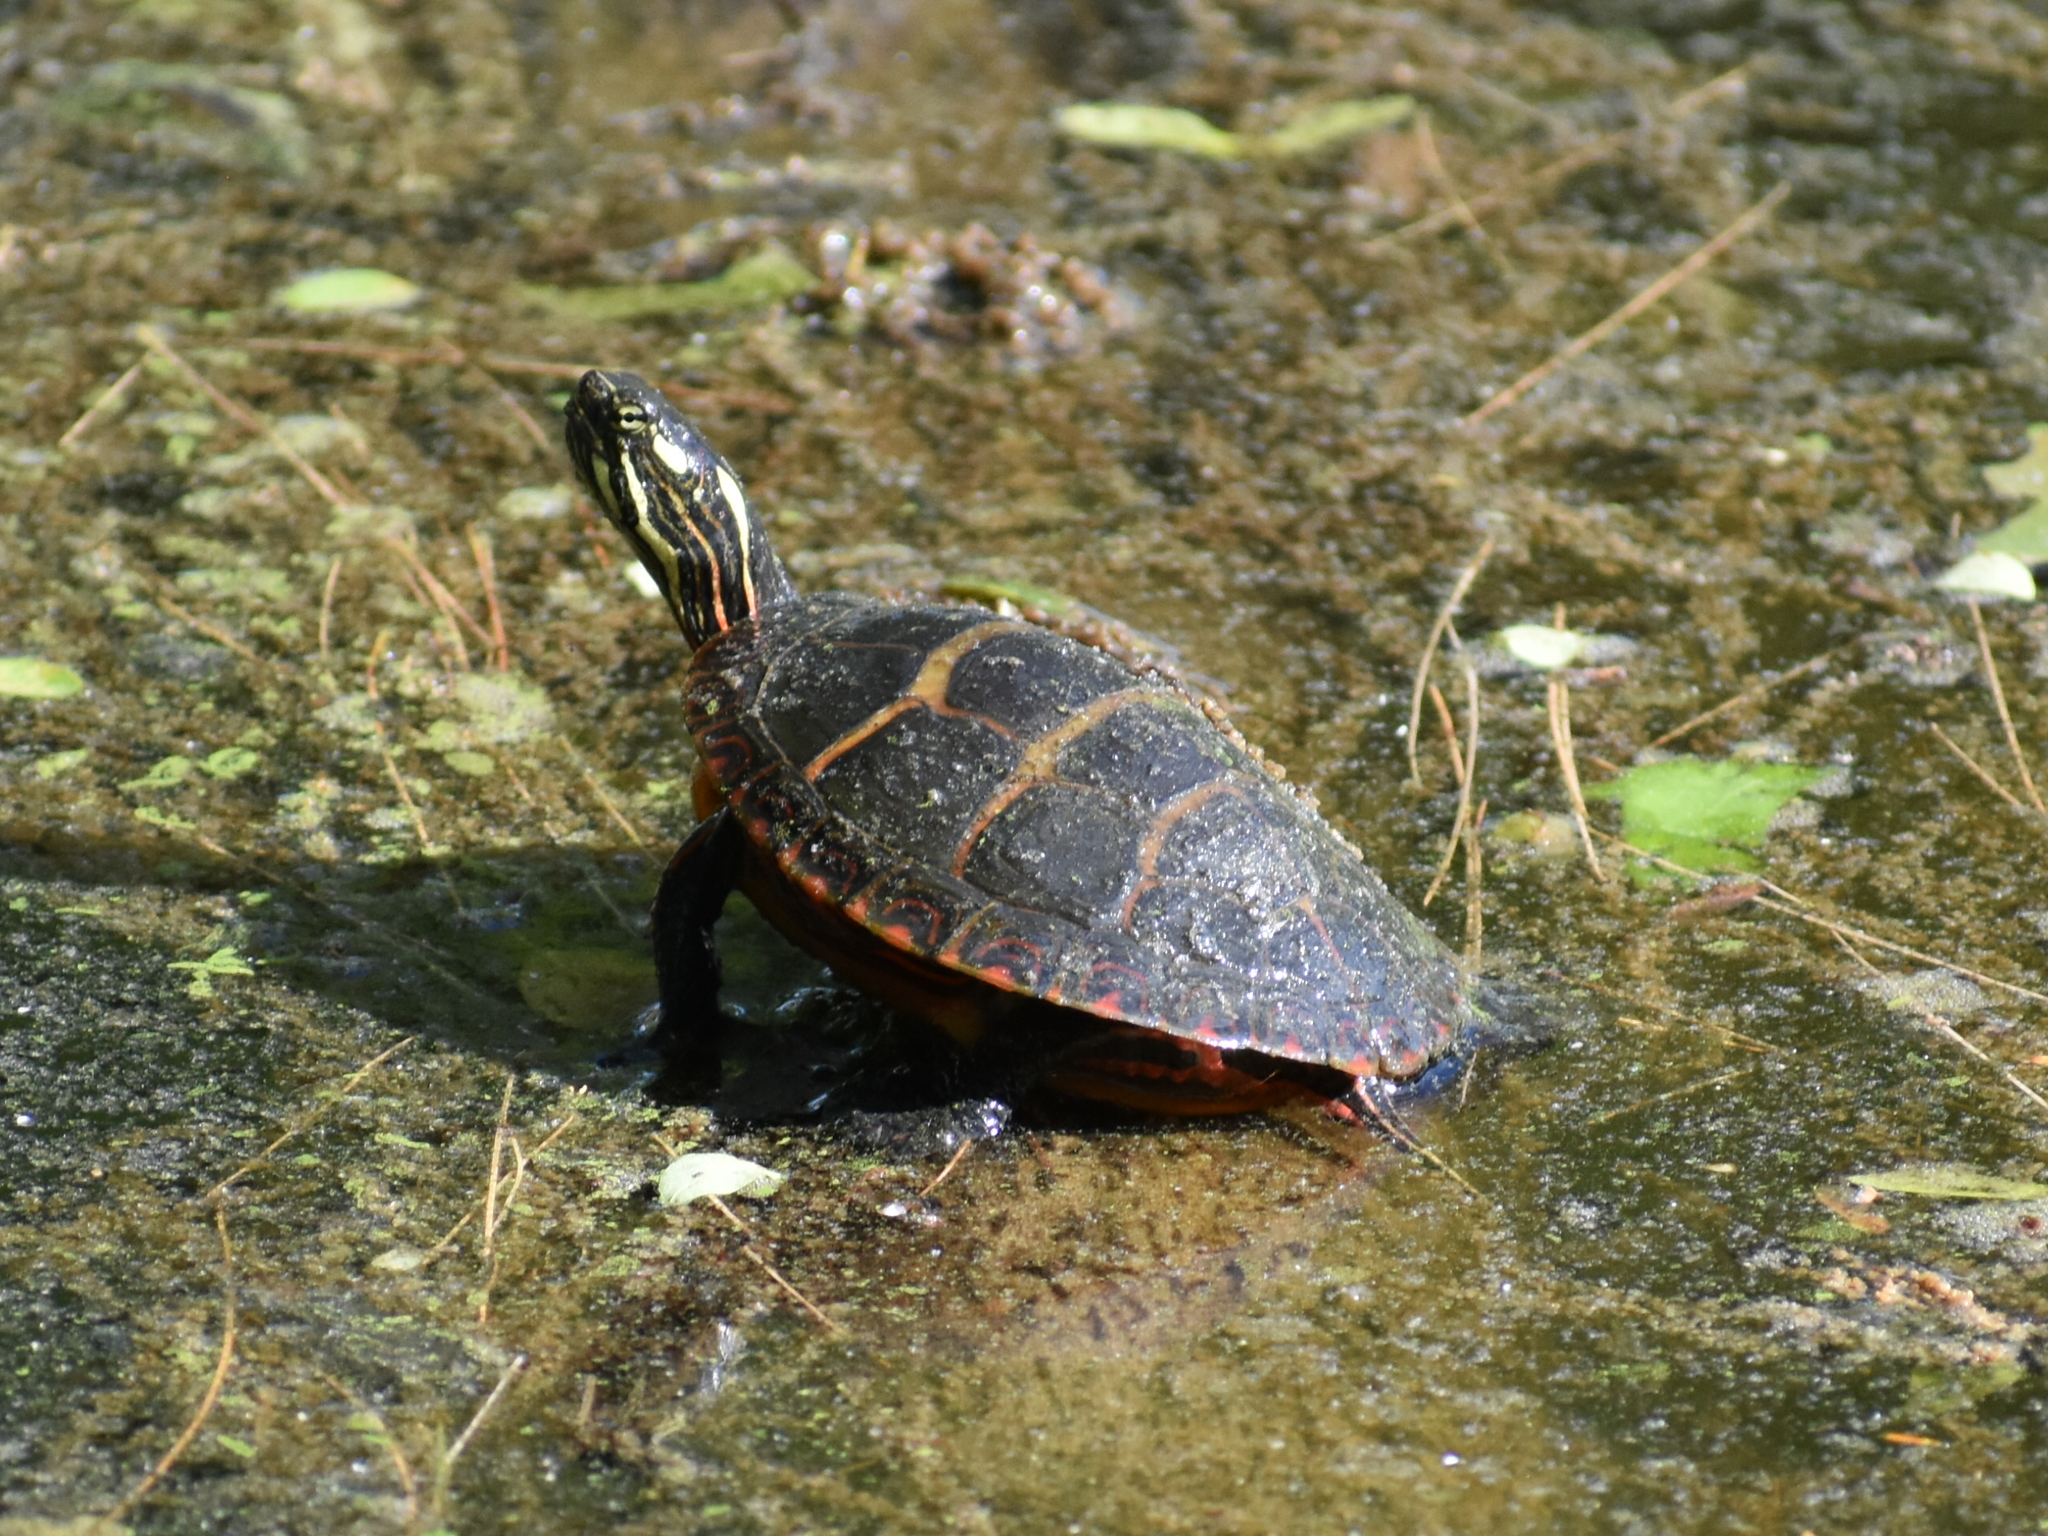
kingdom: Animalia
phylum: Chordata
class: Testudines
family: Emydidae
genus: Chrysemys
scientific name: Chrysemys picta
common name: Painted turtle
